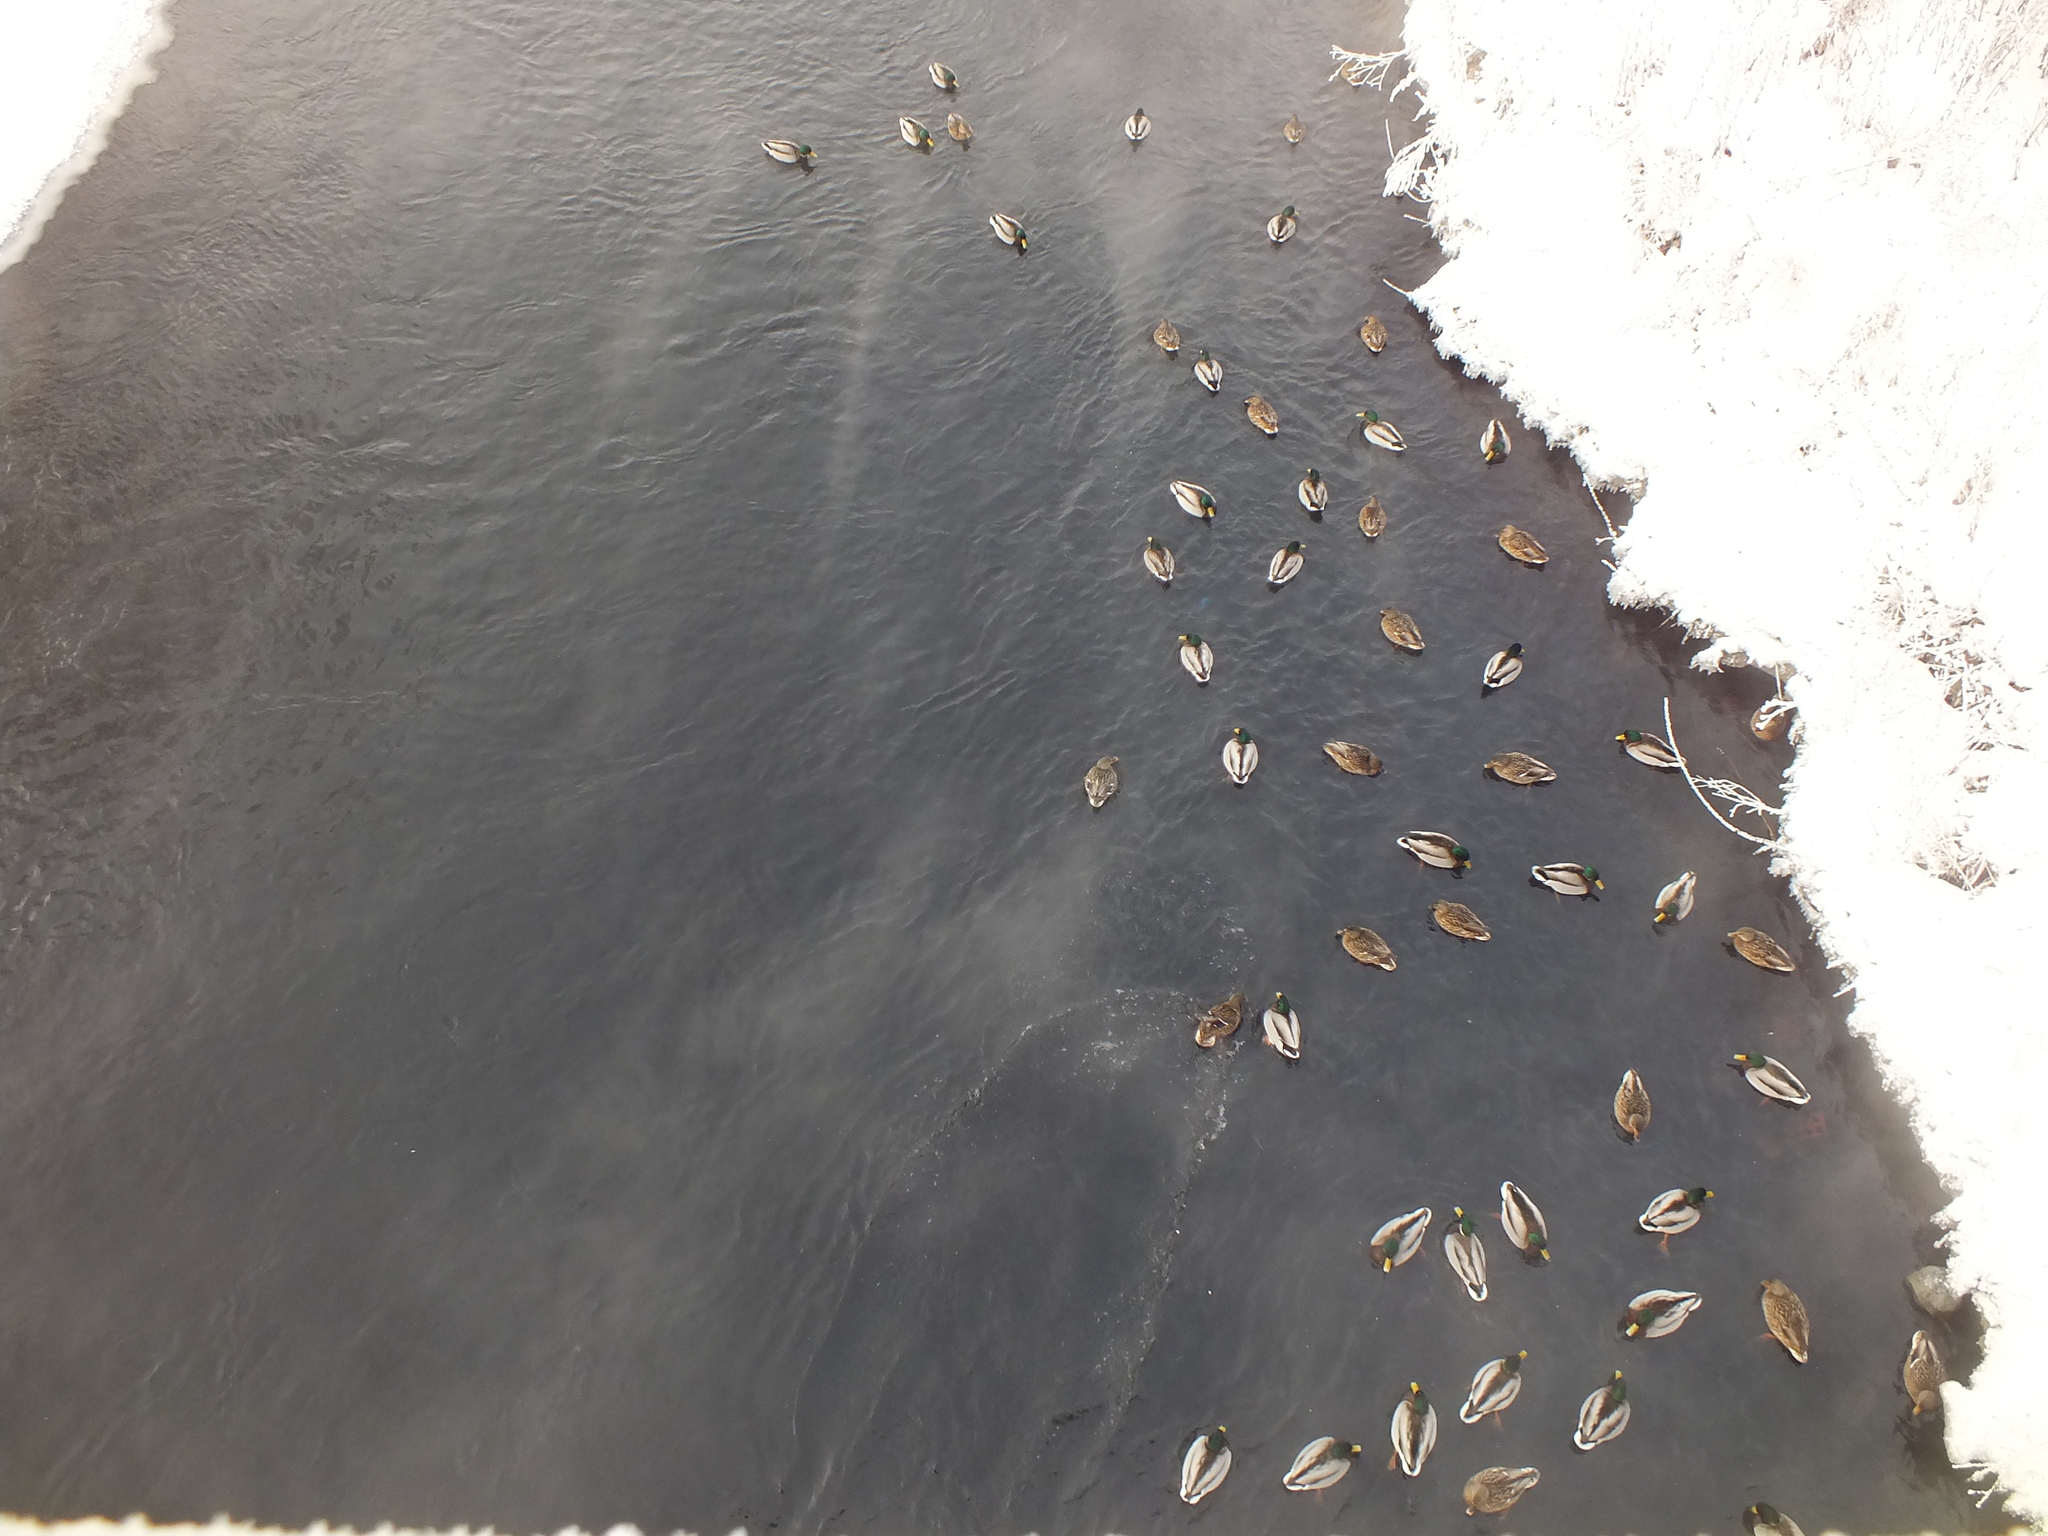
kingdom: Animalia
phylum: Chordata
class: Aves
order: Anseriformes
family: Anatidae
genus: Anas
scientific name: Anas platyrhynchos
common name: Mallard
